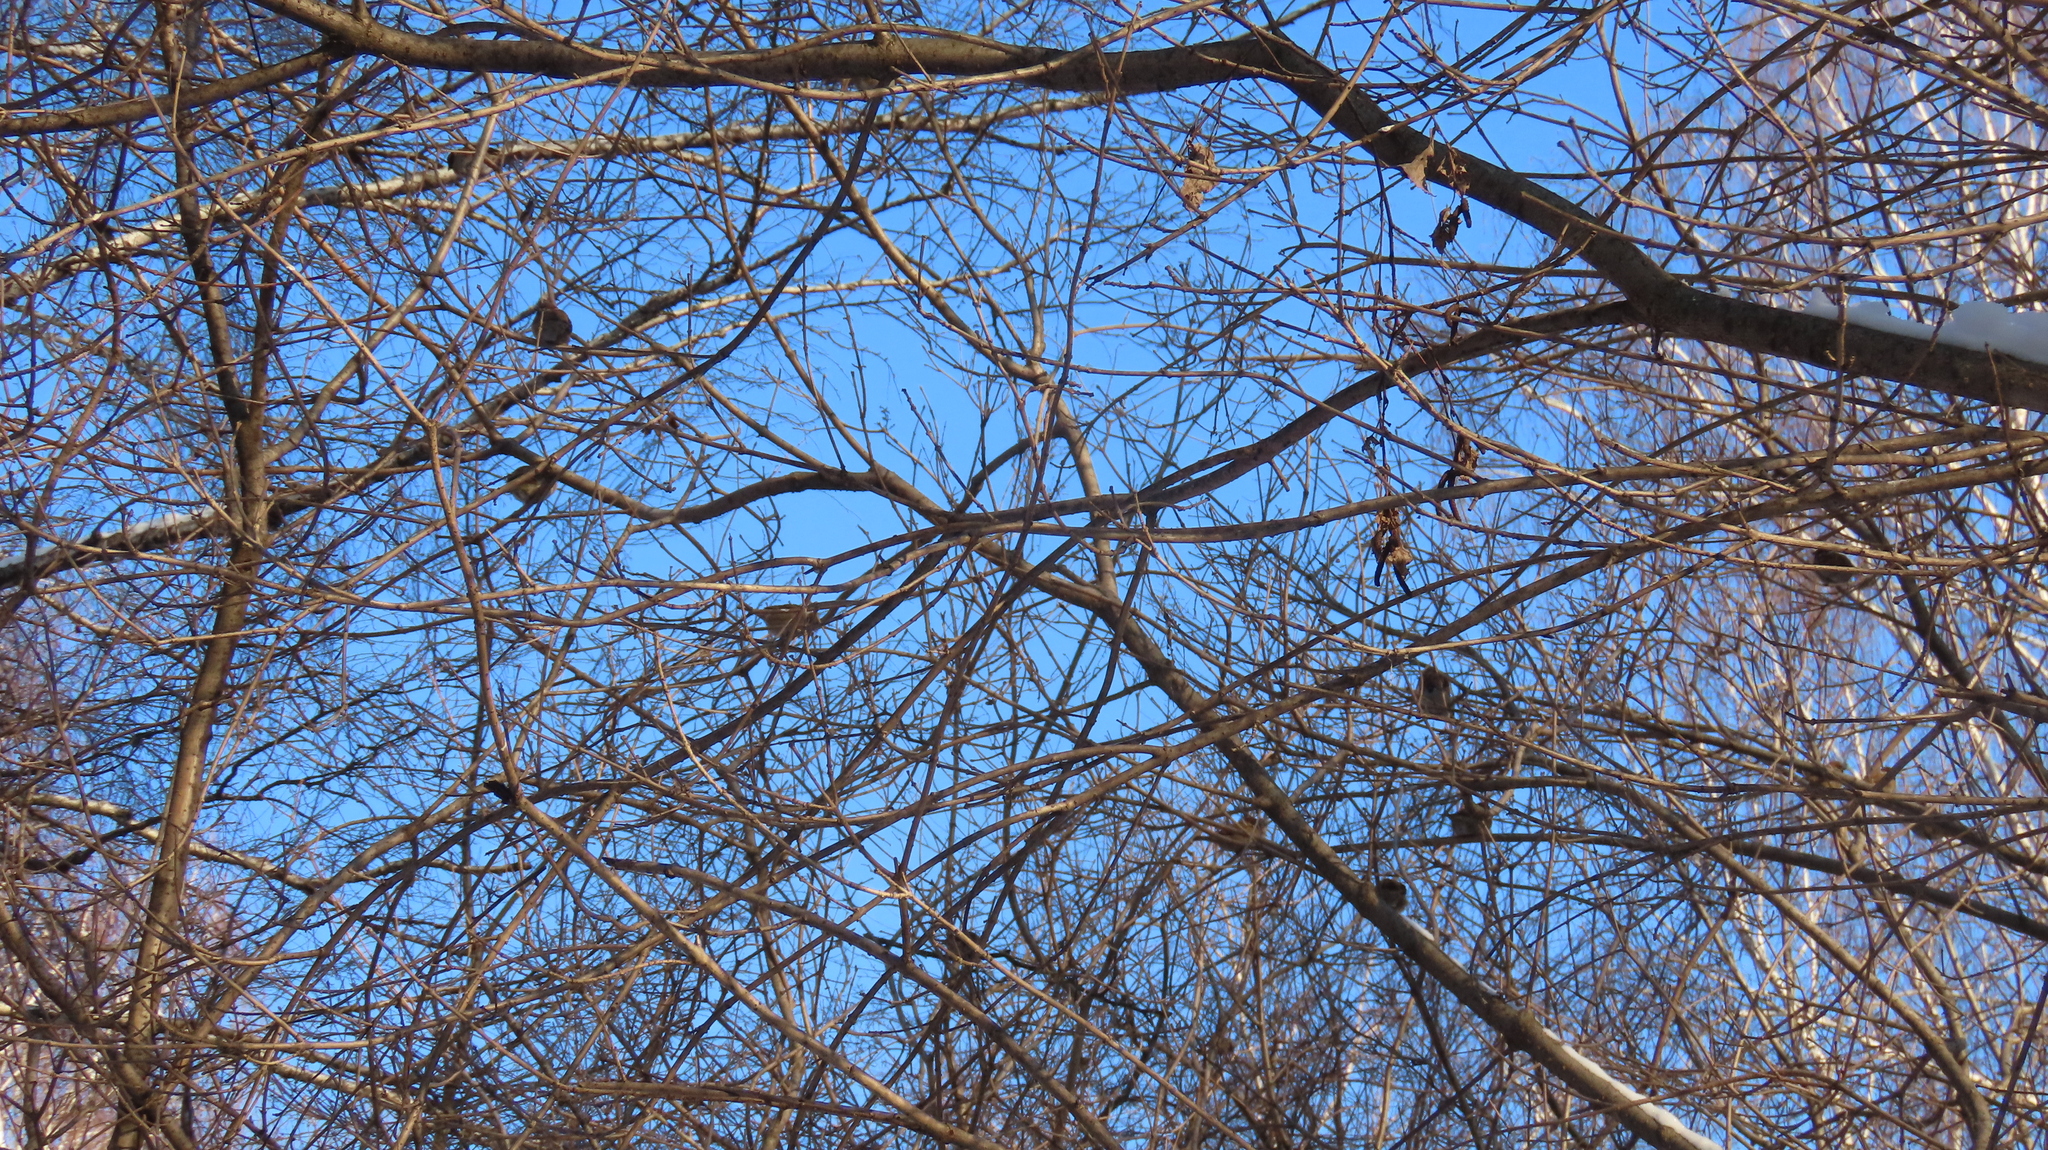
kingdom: Animalia
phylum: Chordata
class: Aves
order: Passeriformes
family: Passeridae
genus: Passer
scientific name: Passer montanus
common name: Eurasian tree sparrow
